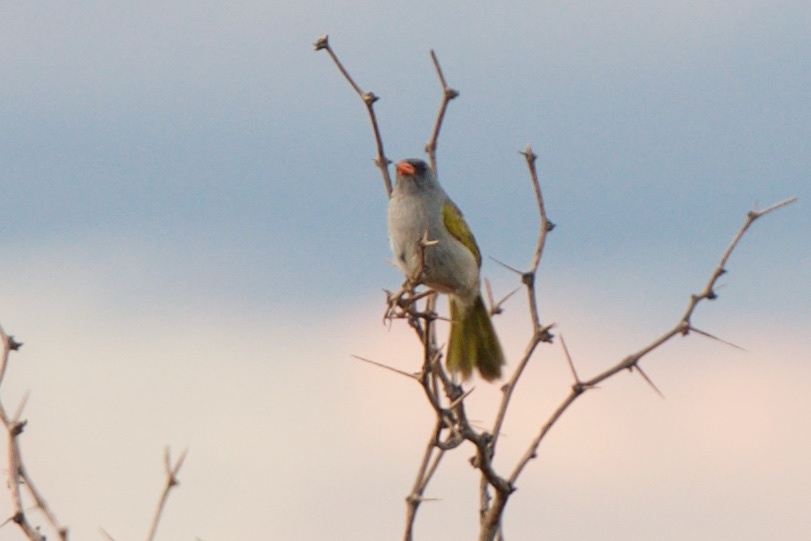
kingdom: Animalia
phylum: Chordata
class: Aves
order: Passeriformes
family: Thraupidae
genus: Embernagra
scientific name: Embernagra platensis
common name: Pampa finch
